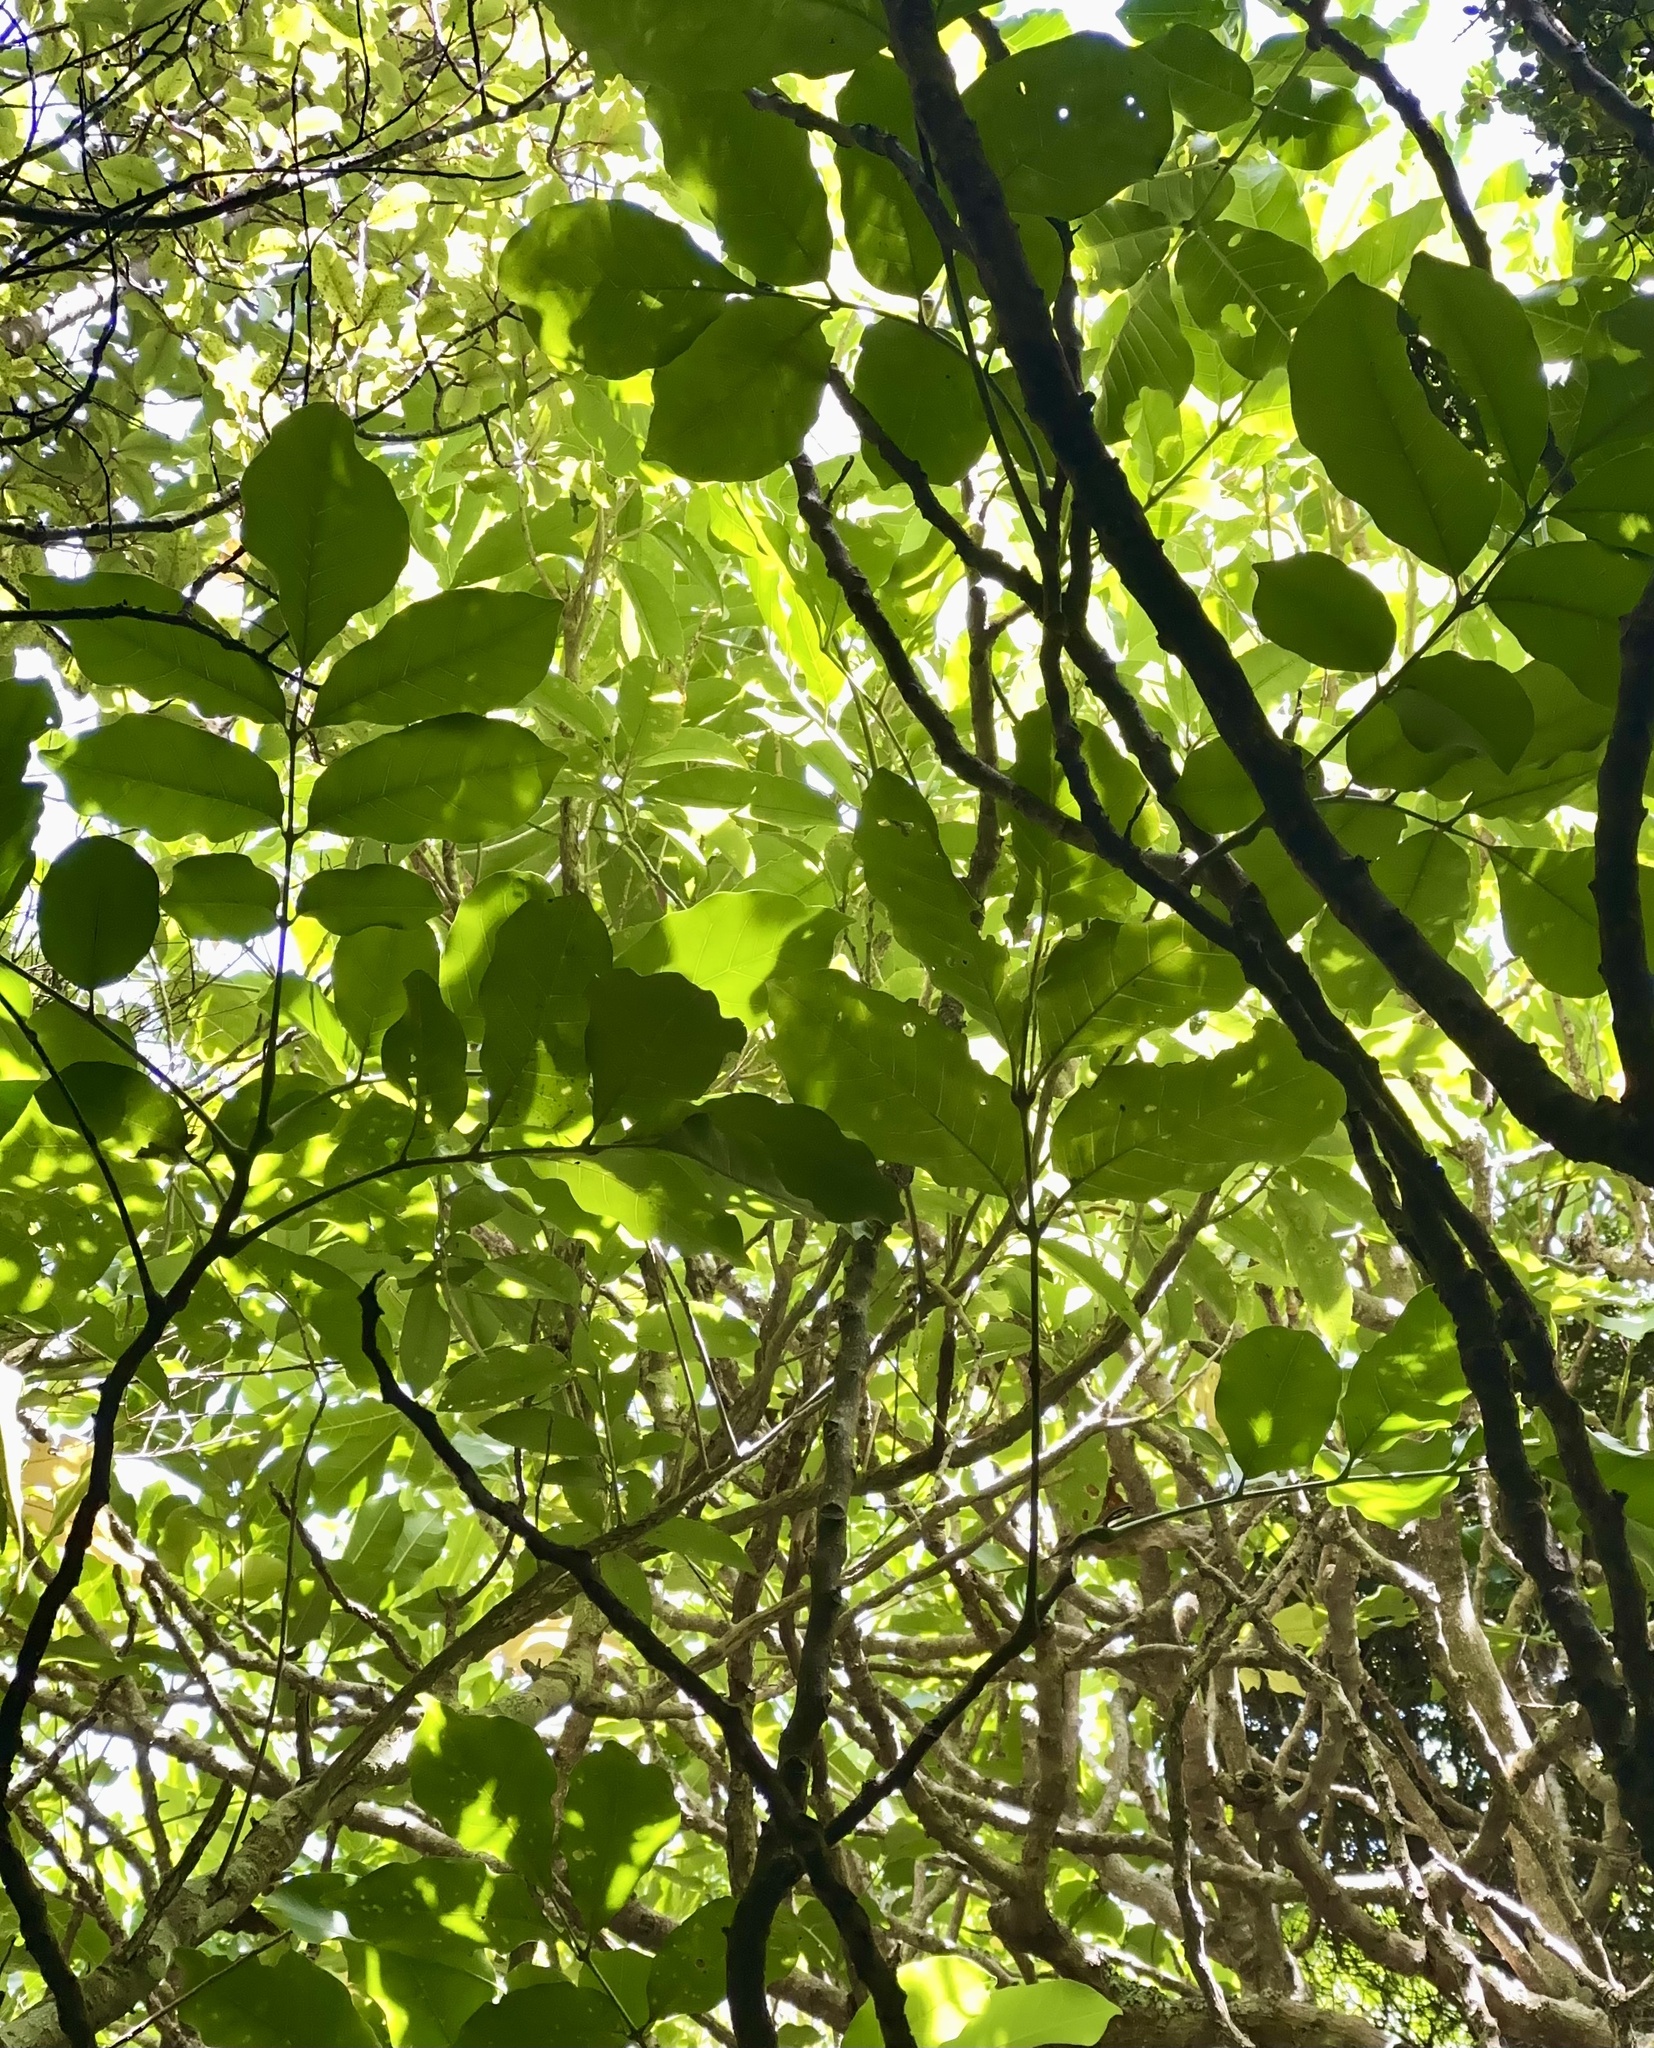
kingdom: Plantae
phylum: Tracheophyta
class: Magnoliopsida
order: Sapindales
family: Meliaceae
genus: Didymocheton
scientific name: Didymocheton spectabilis
